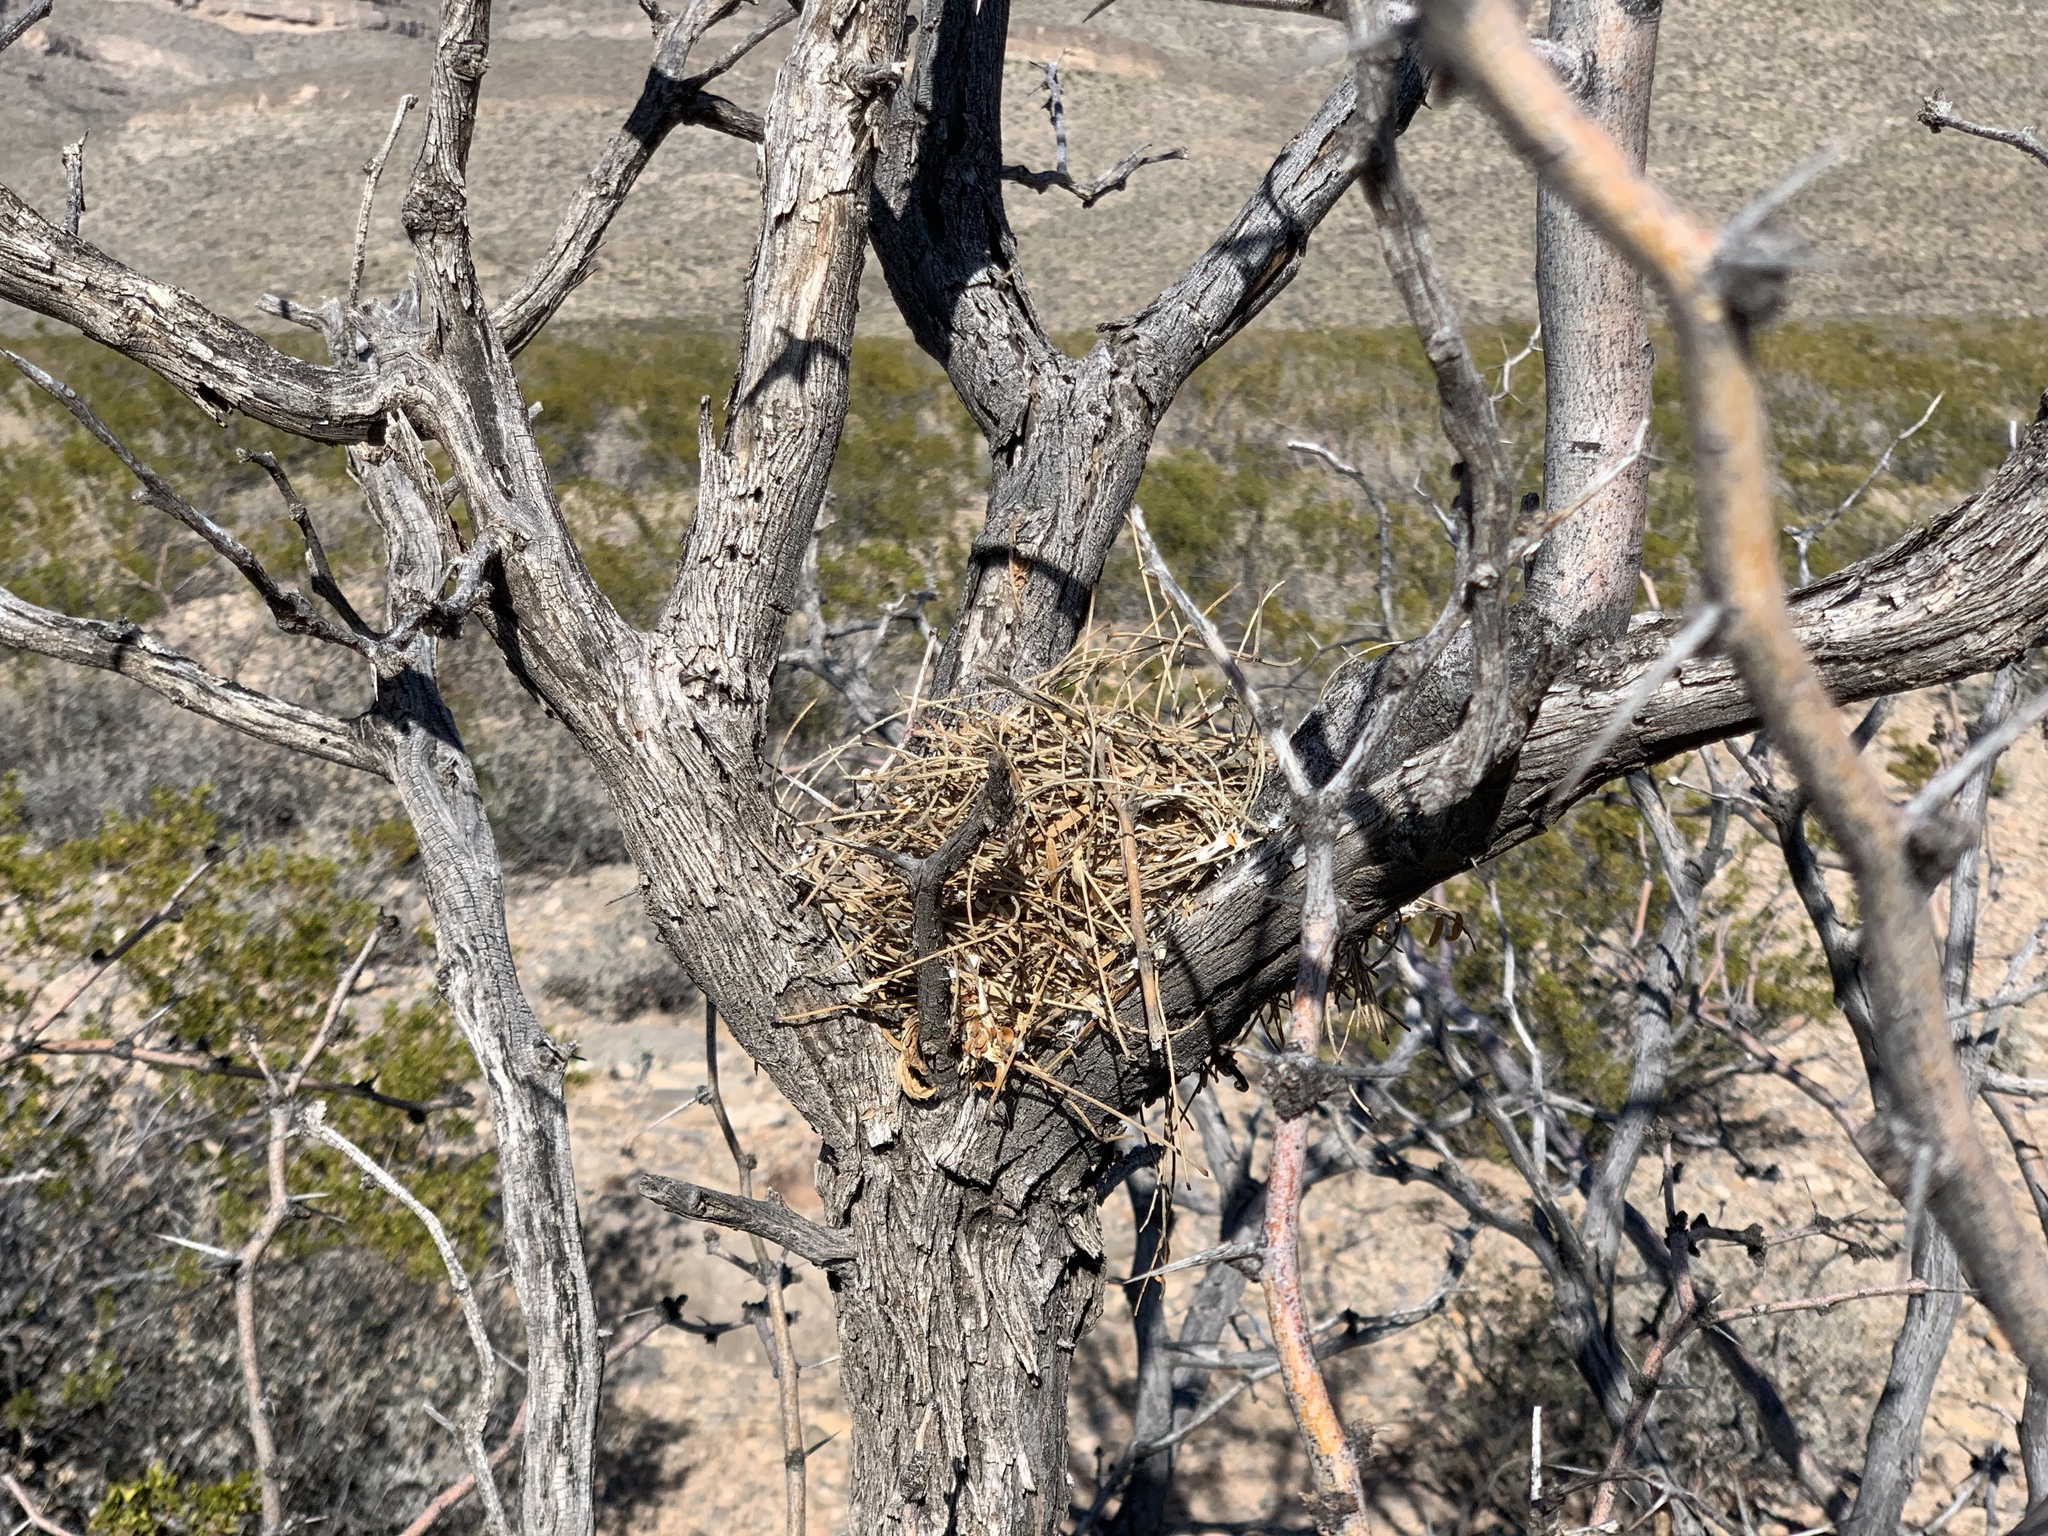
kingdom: Animalia
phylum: Chordata
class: Aves
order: Passeriformes
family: Troglodytidae
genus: Campylorhynchus
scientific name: Campylorhynchus brunneicapillus
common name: Cactus wren
